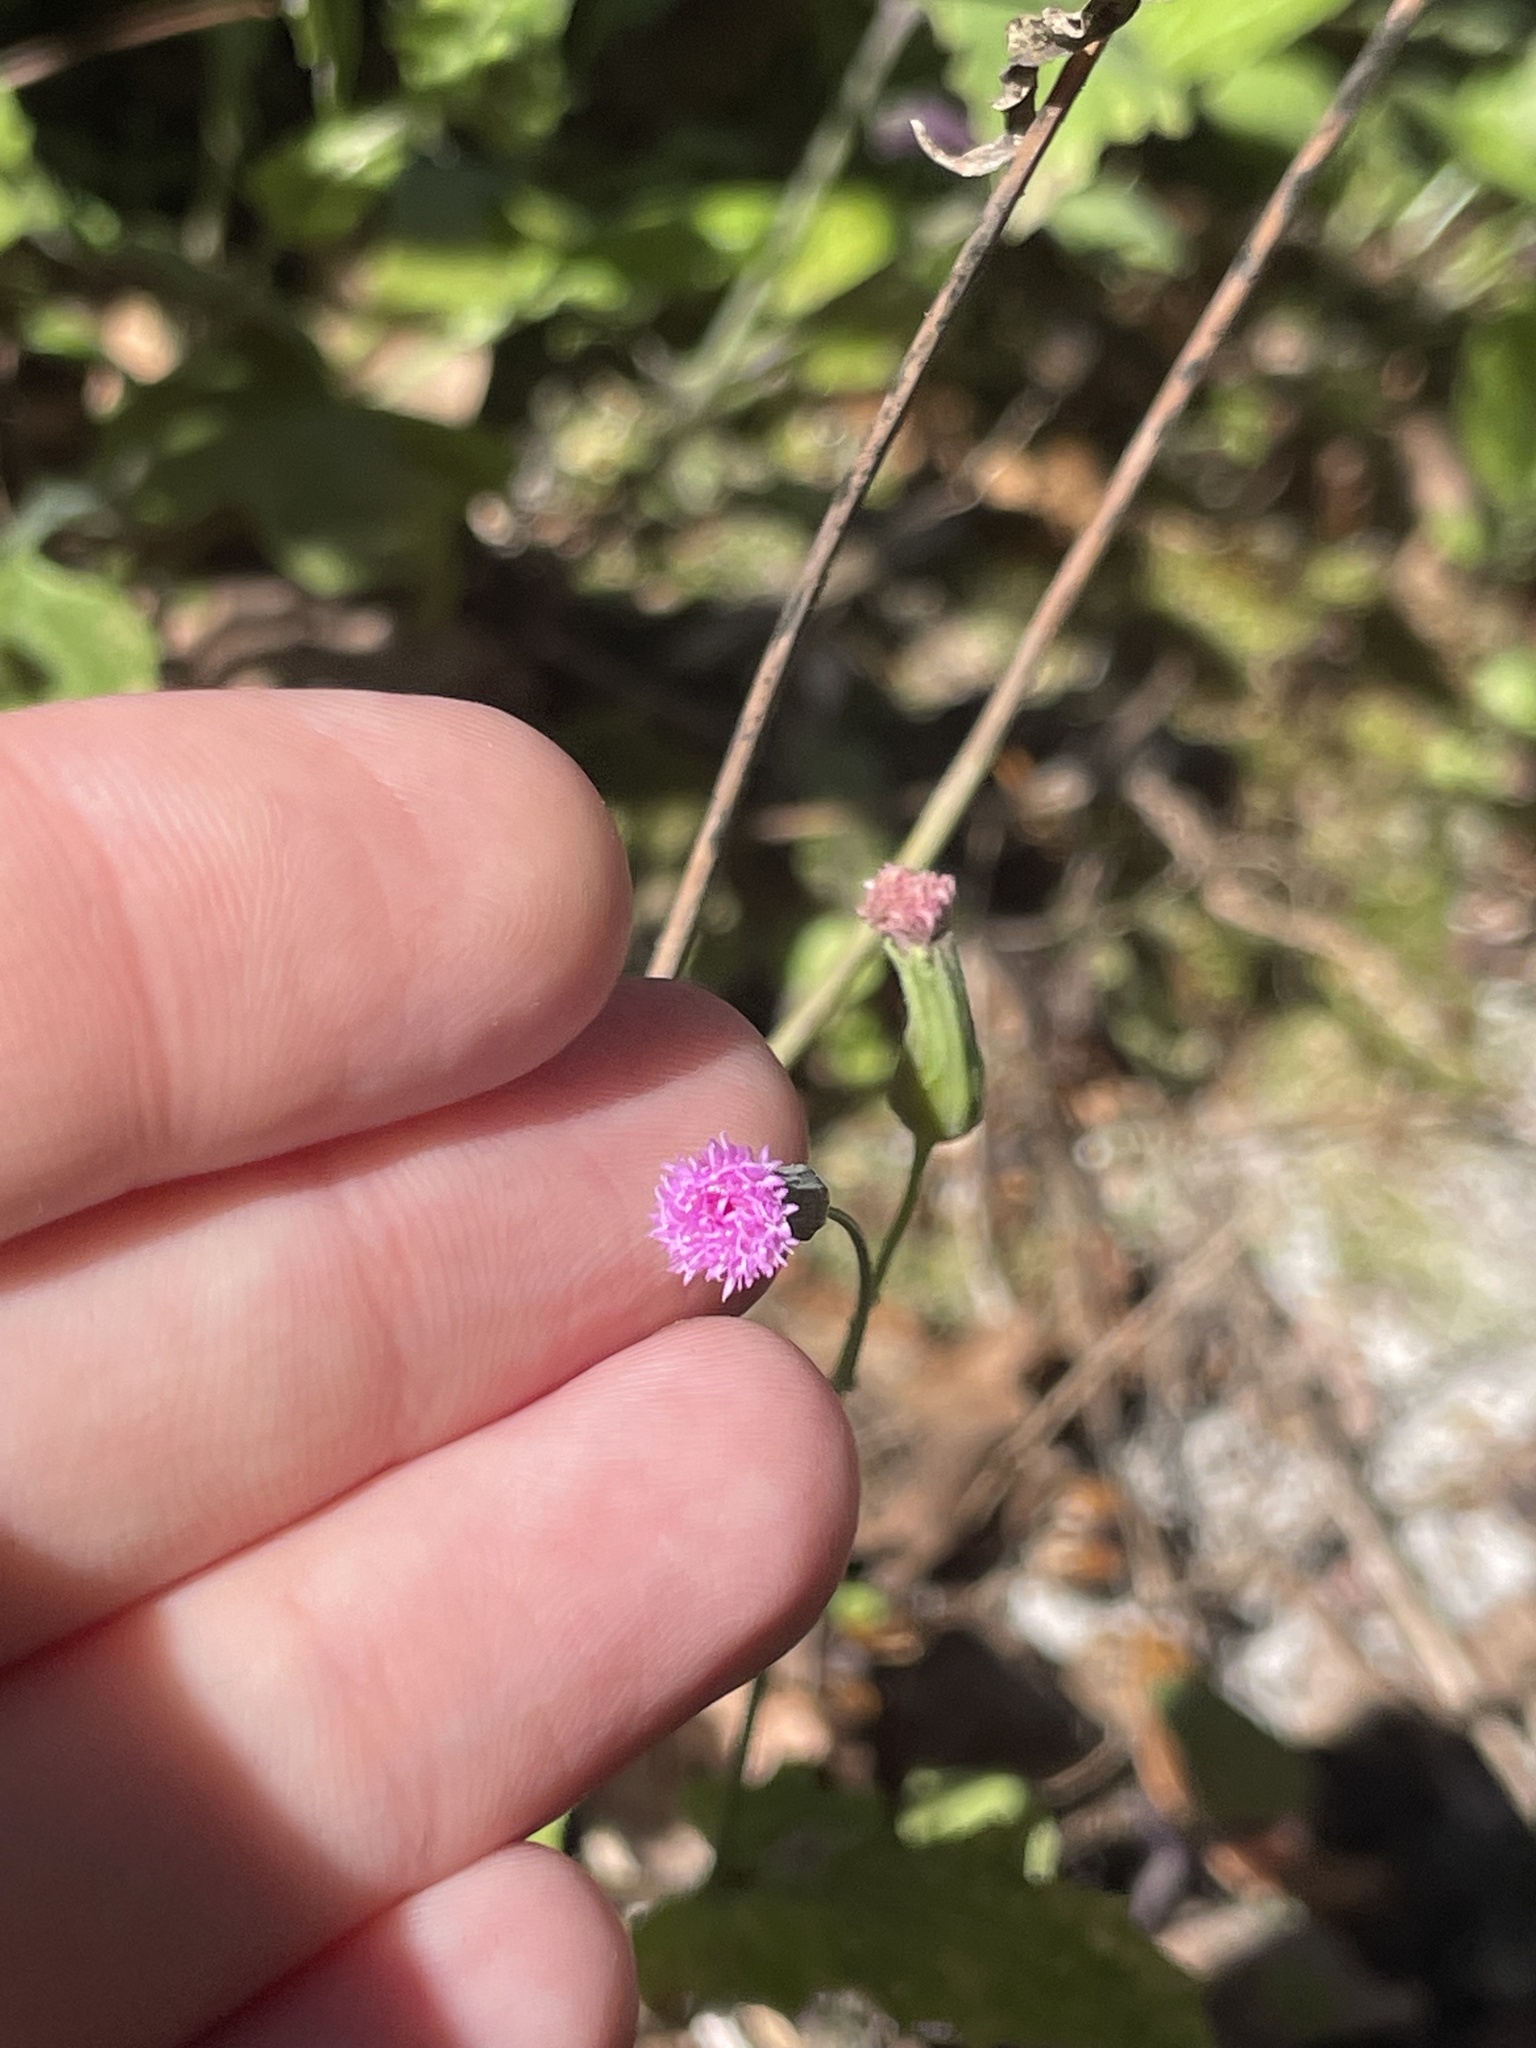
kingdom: Plantae
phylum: Tracheophyta
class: Magnoliopsida
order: Asterales
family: Asteraceae
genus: Emilia
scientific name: Emilia sonchifolia
